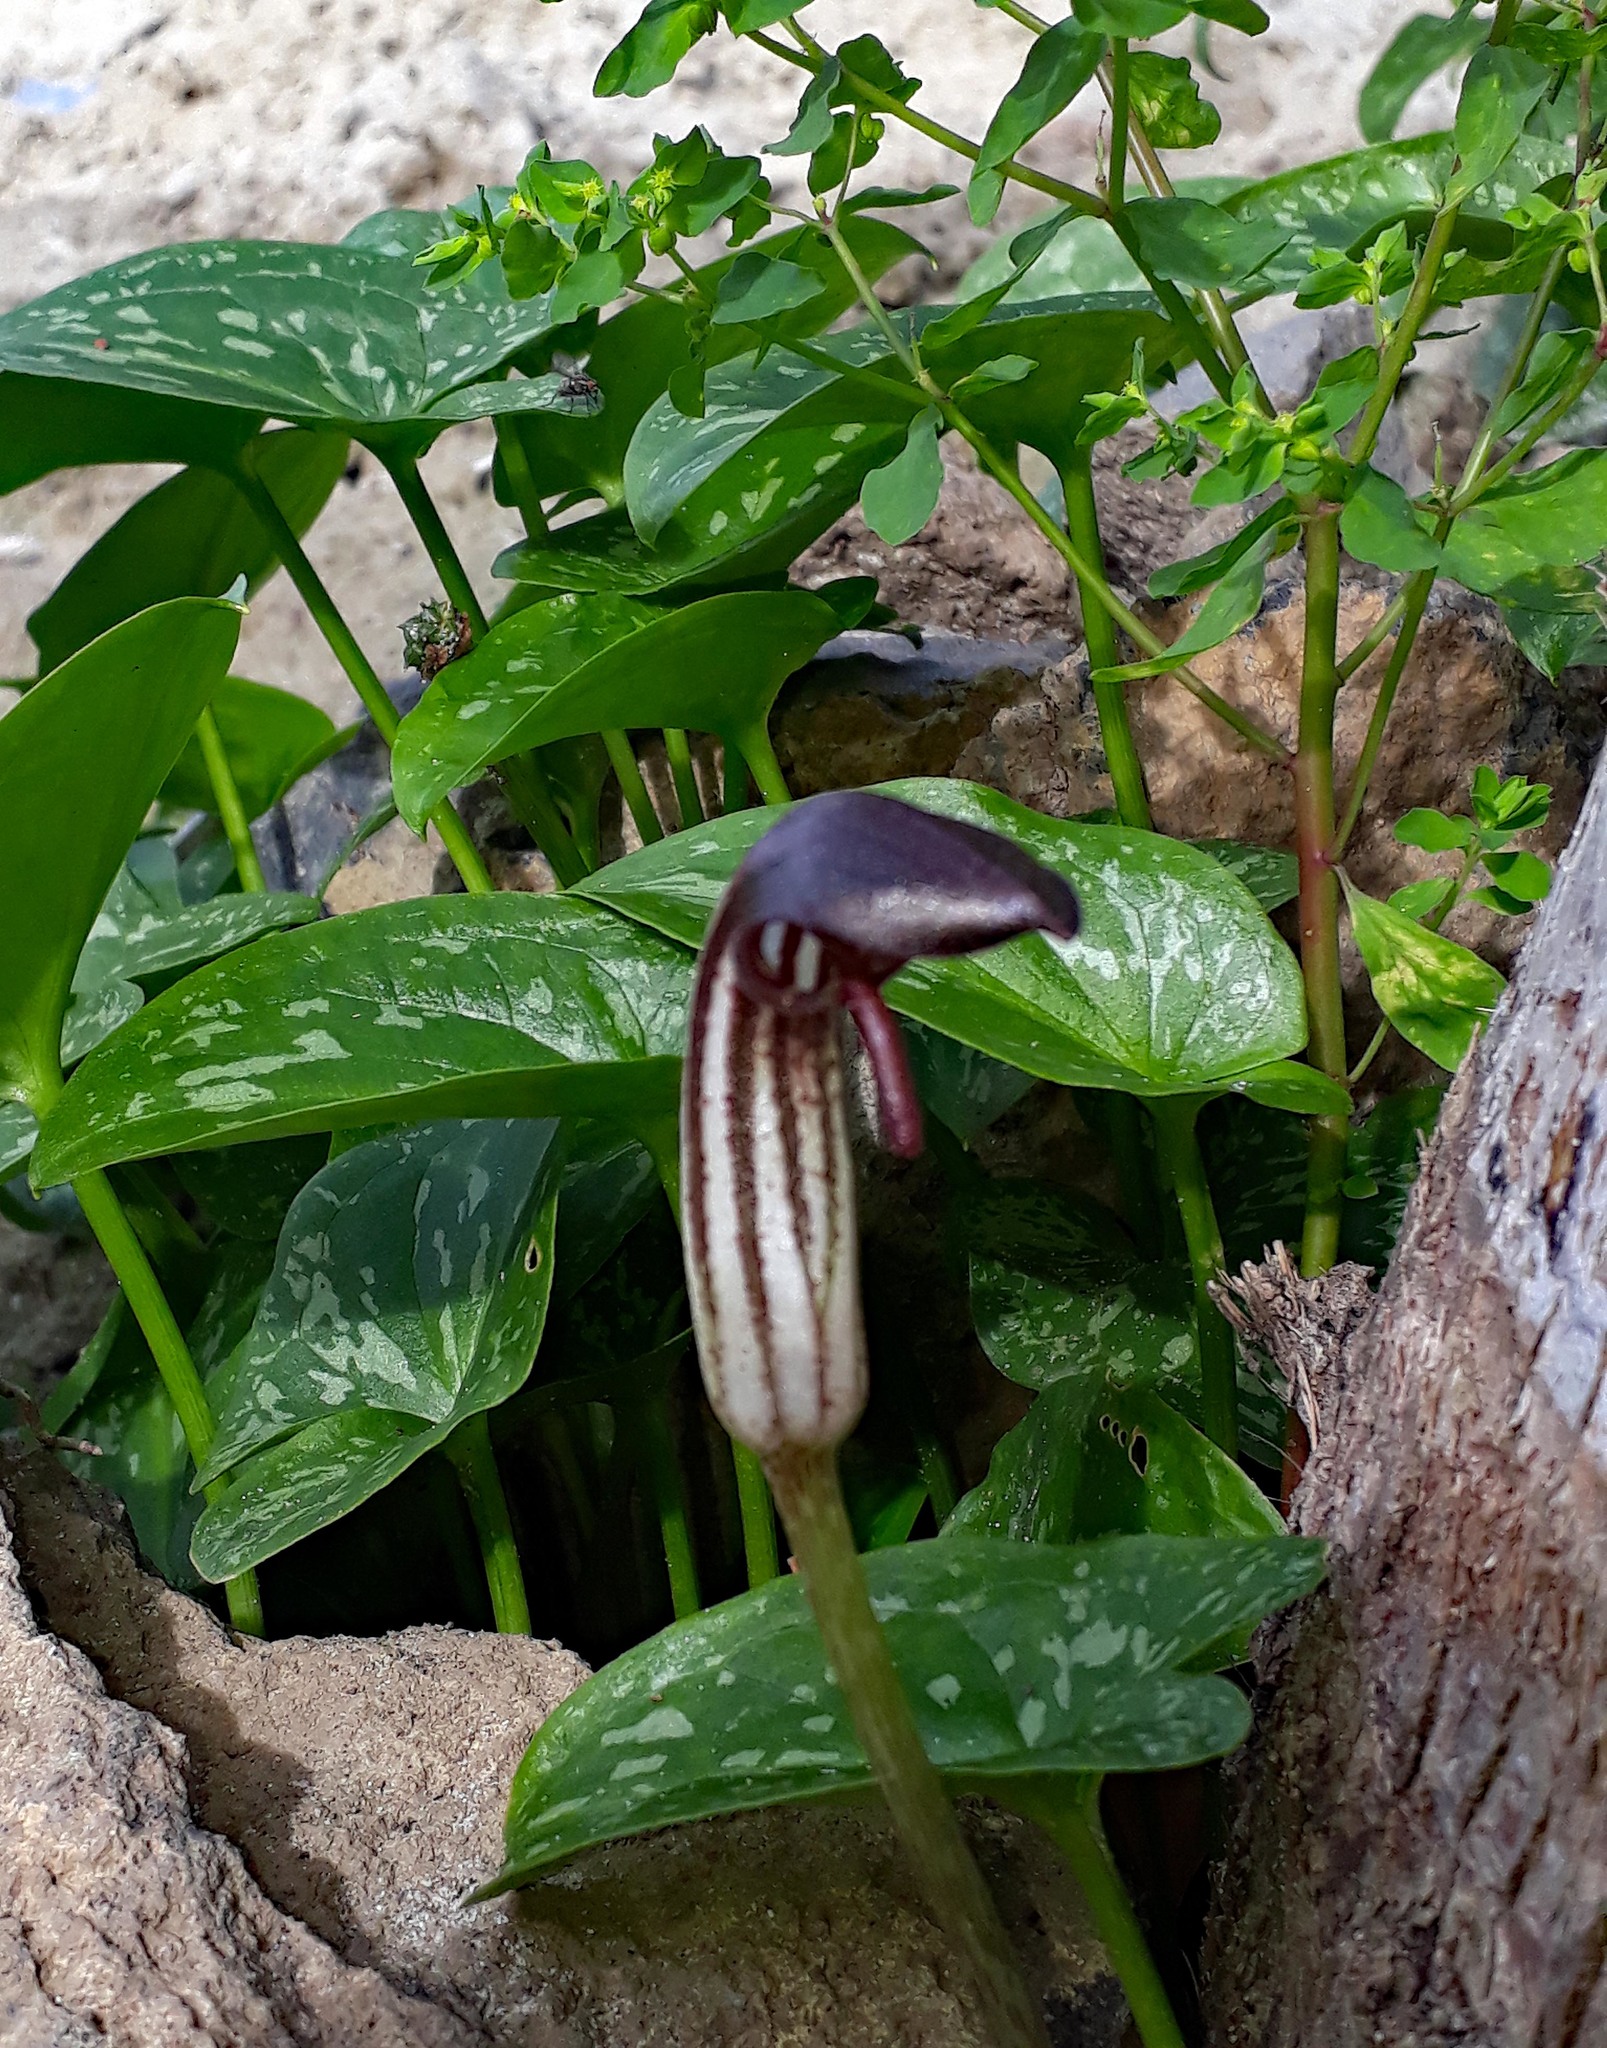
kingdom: Plantae
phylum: Tracheophyta
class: Liliopsida
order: Alismatales
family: Araceae
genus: Arisarum
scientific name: Arisarum vulgare
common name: Common arisarum
